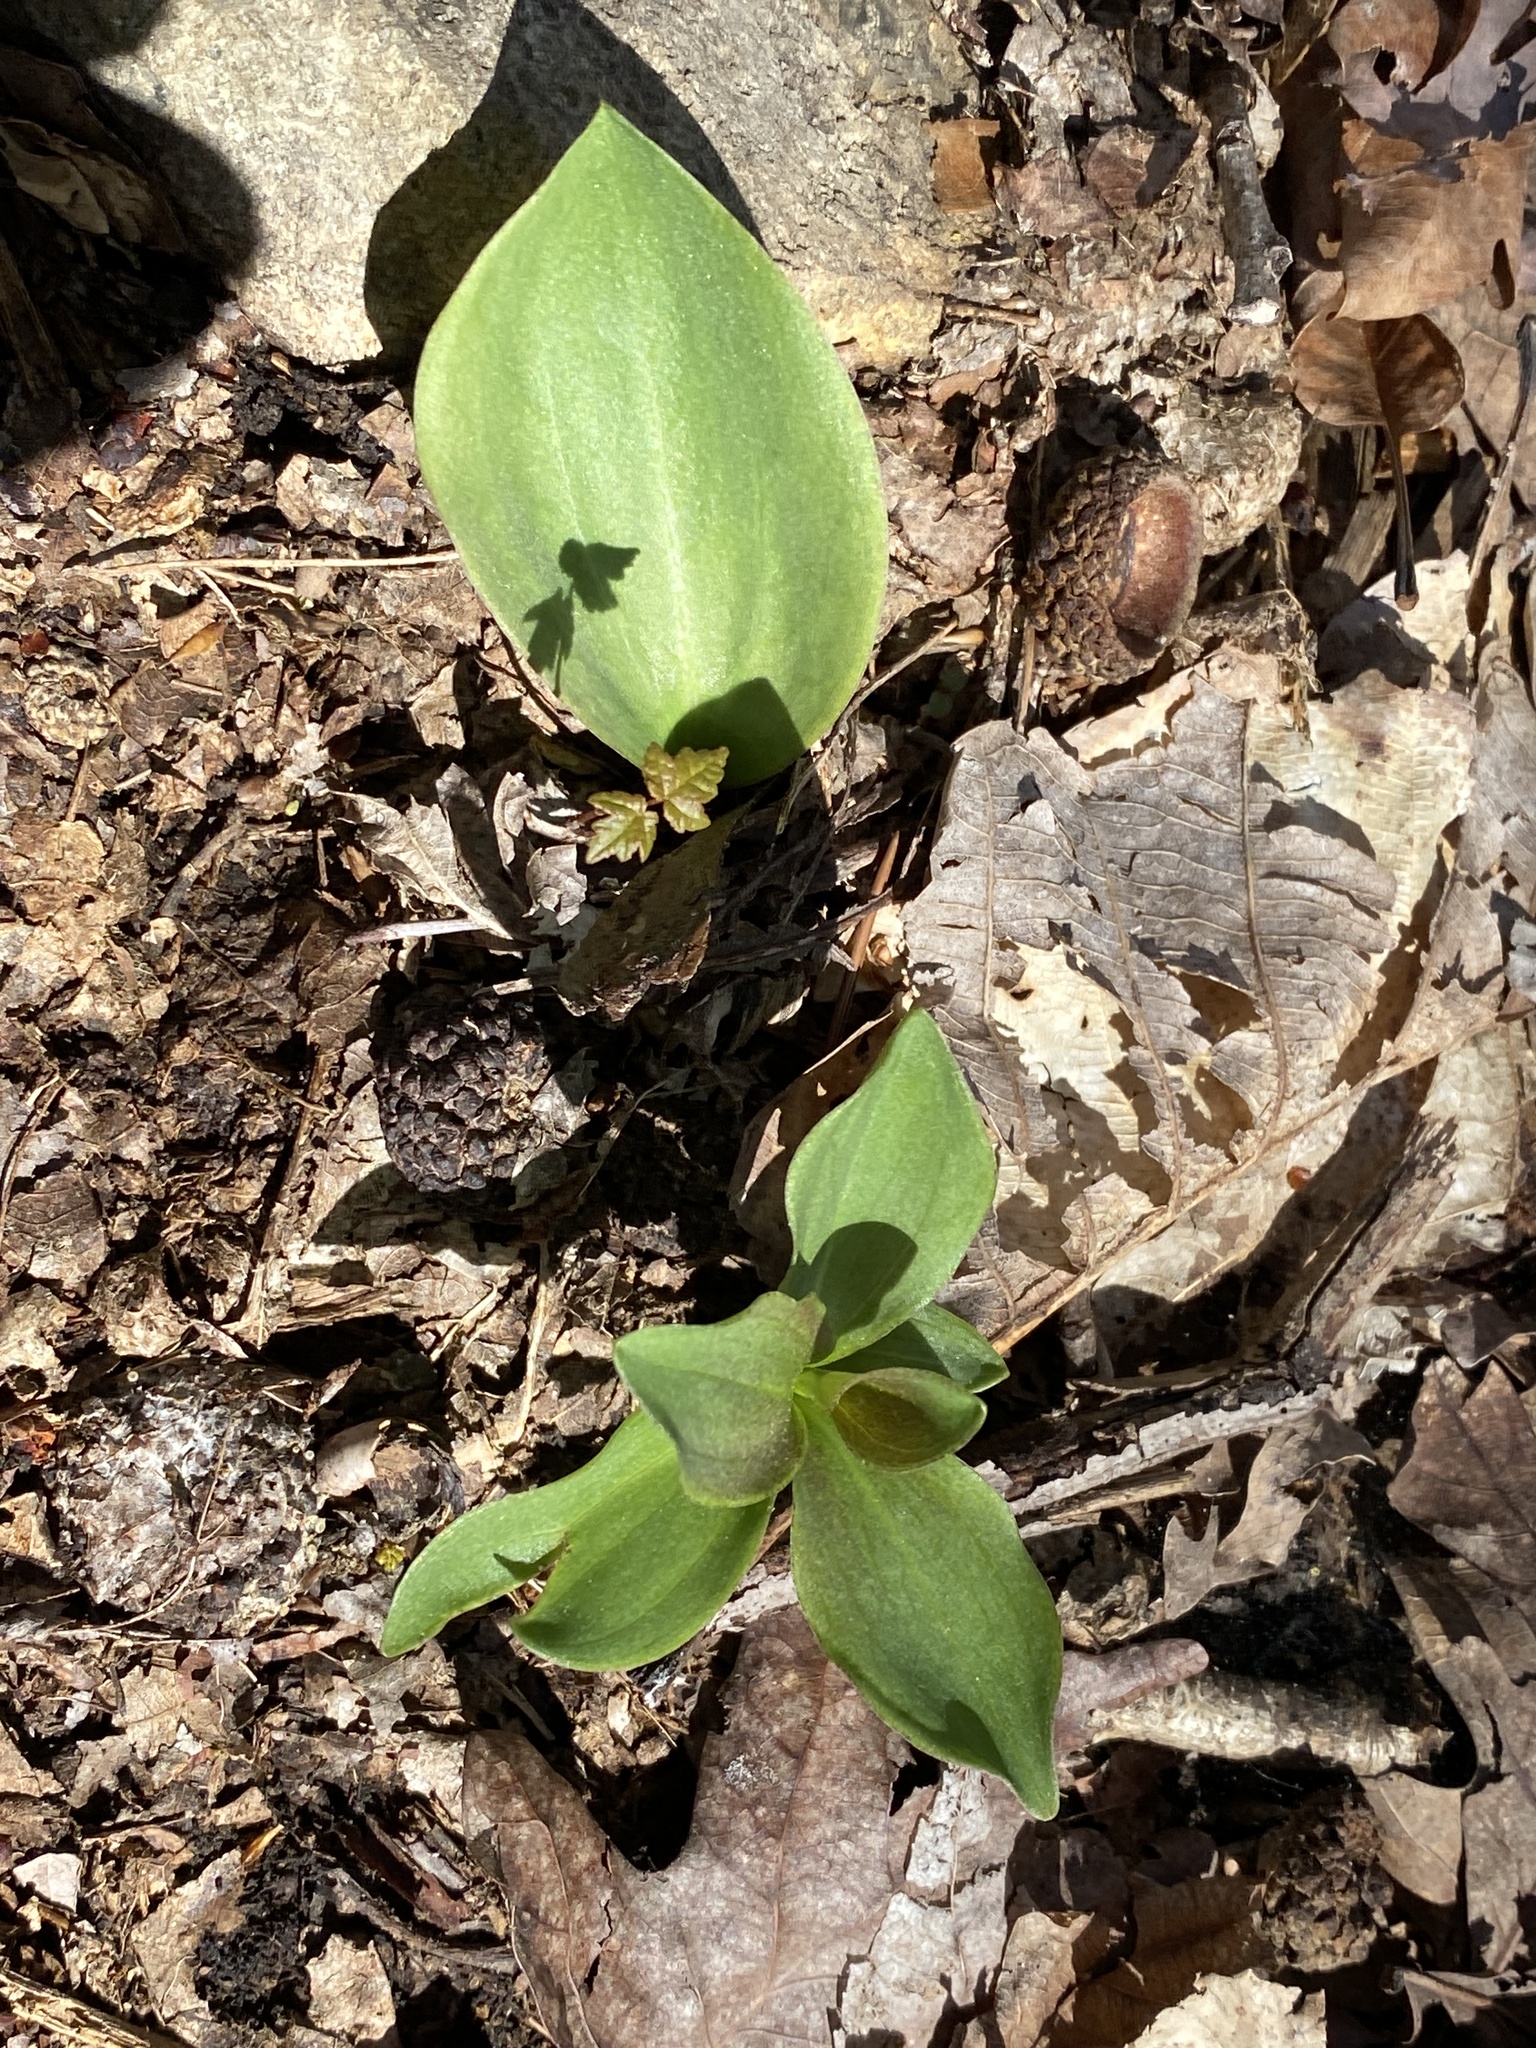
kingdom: Plantae
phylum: Tracheophyta
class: Liliopsida
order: Liliales
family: Liliaceae
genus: Lilium
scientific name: Lilium michauxii
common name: Carolina lily
